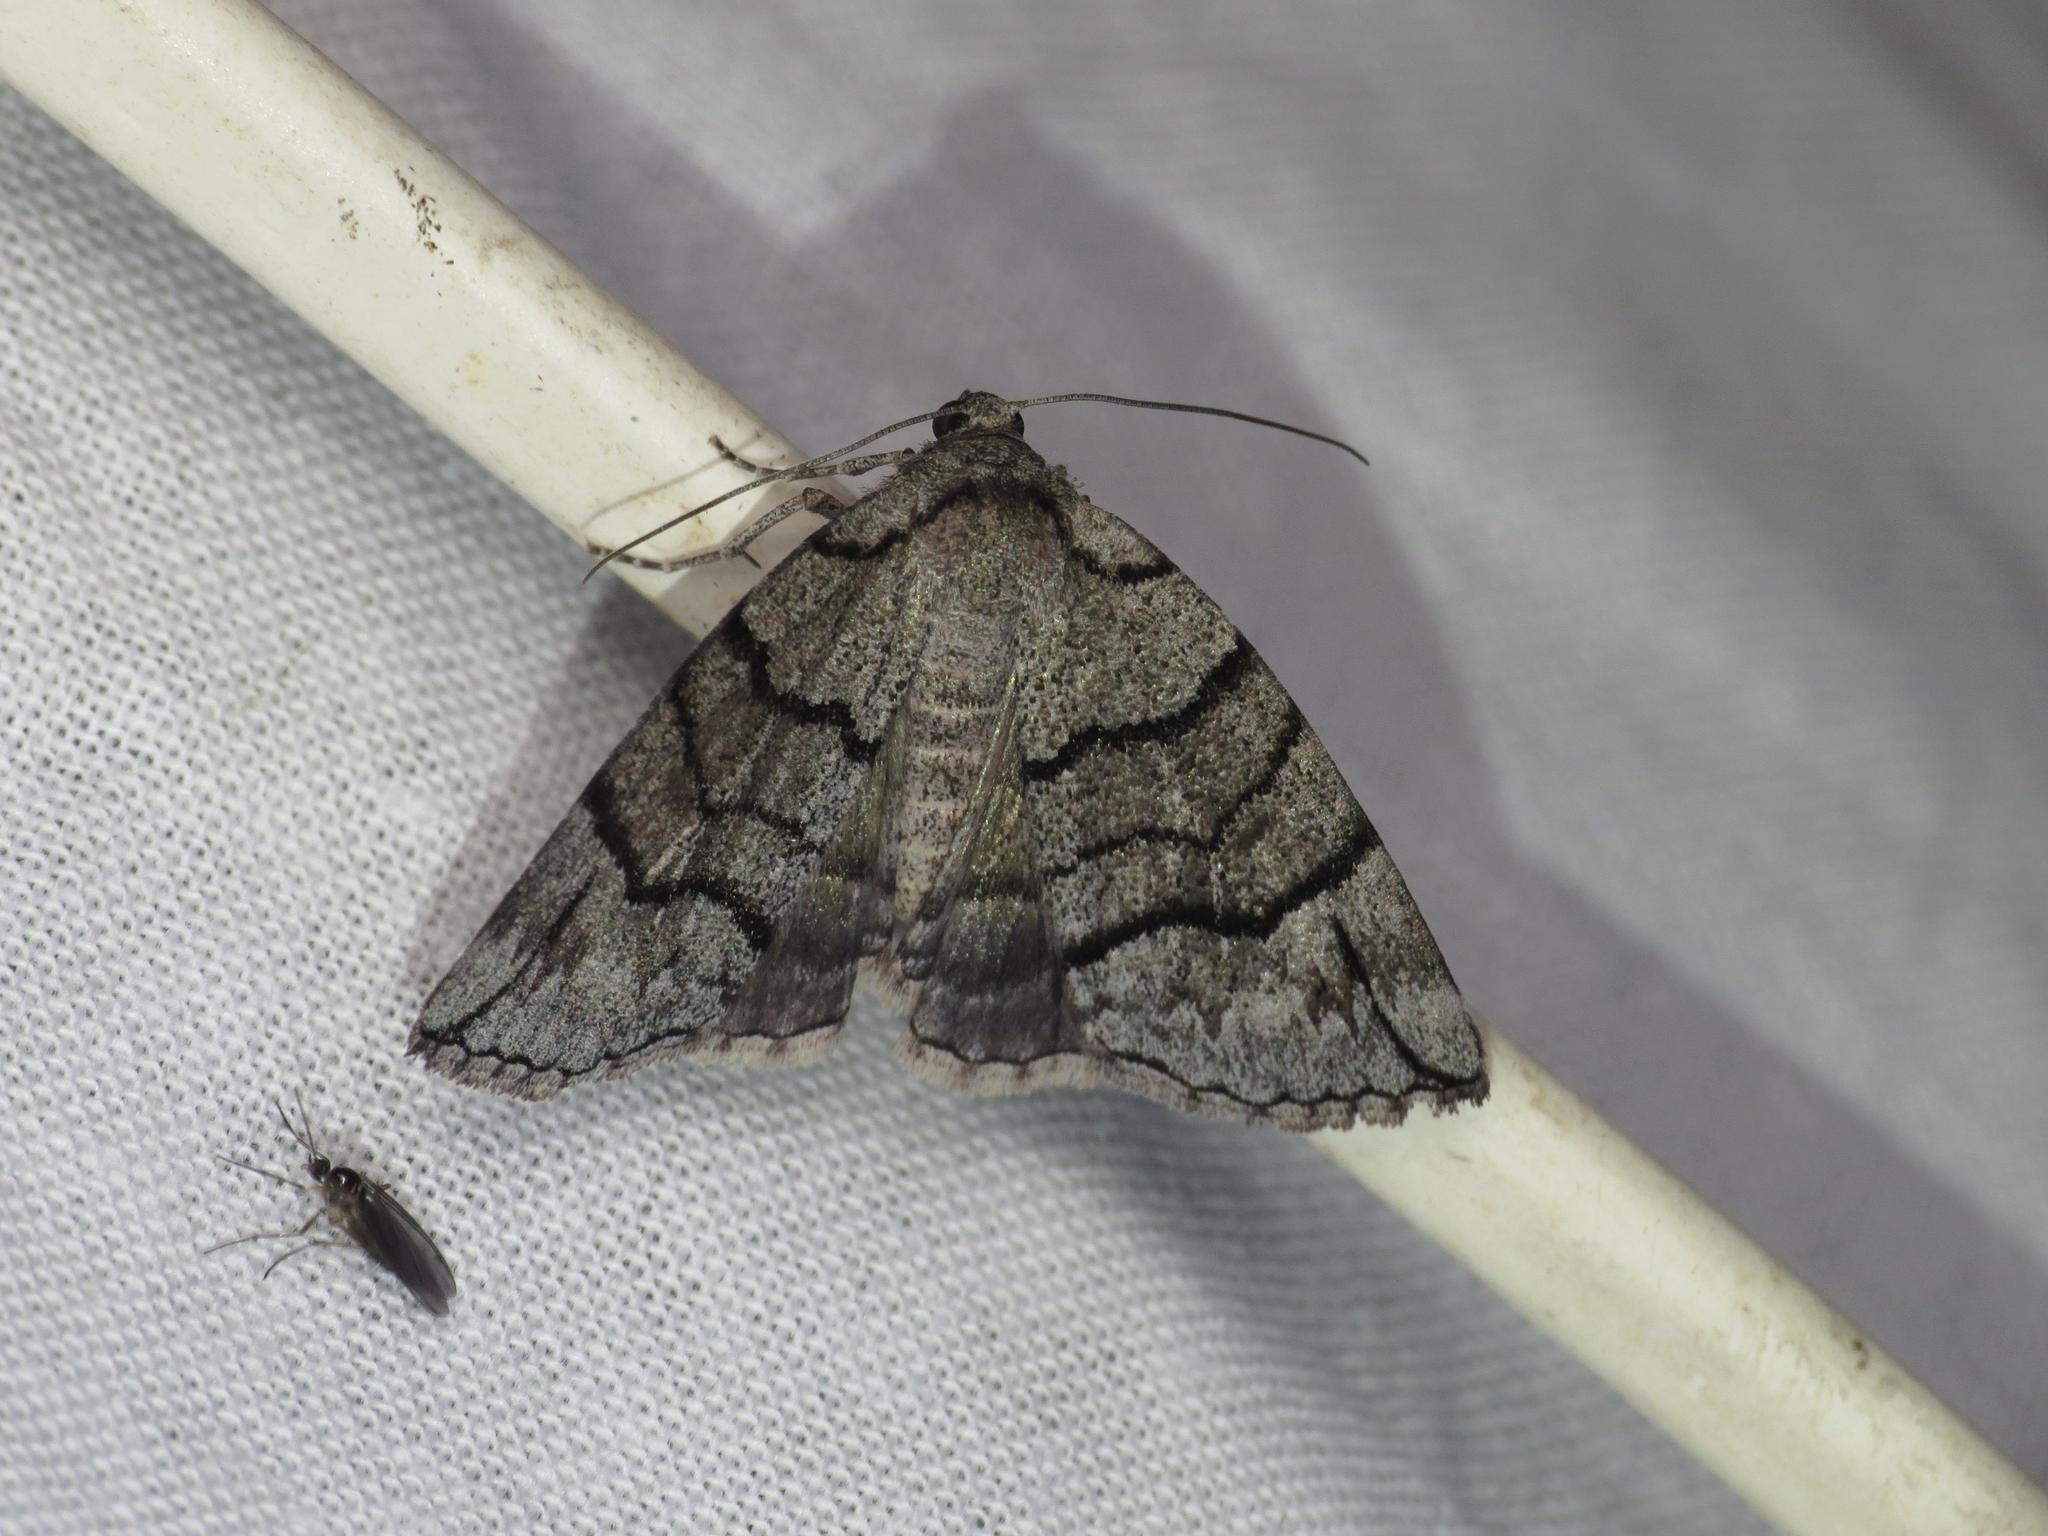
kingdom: Animalia
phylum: Arthropoda
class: Insecta
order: Lepidoptera
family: Geometridae
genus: Dysbatus
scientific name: Dysbatus stenodesma
